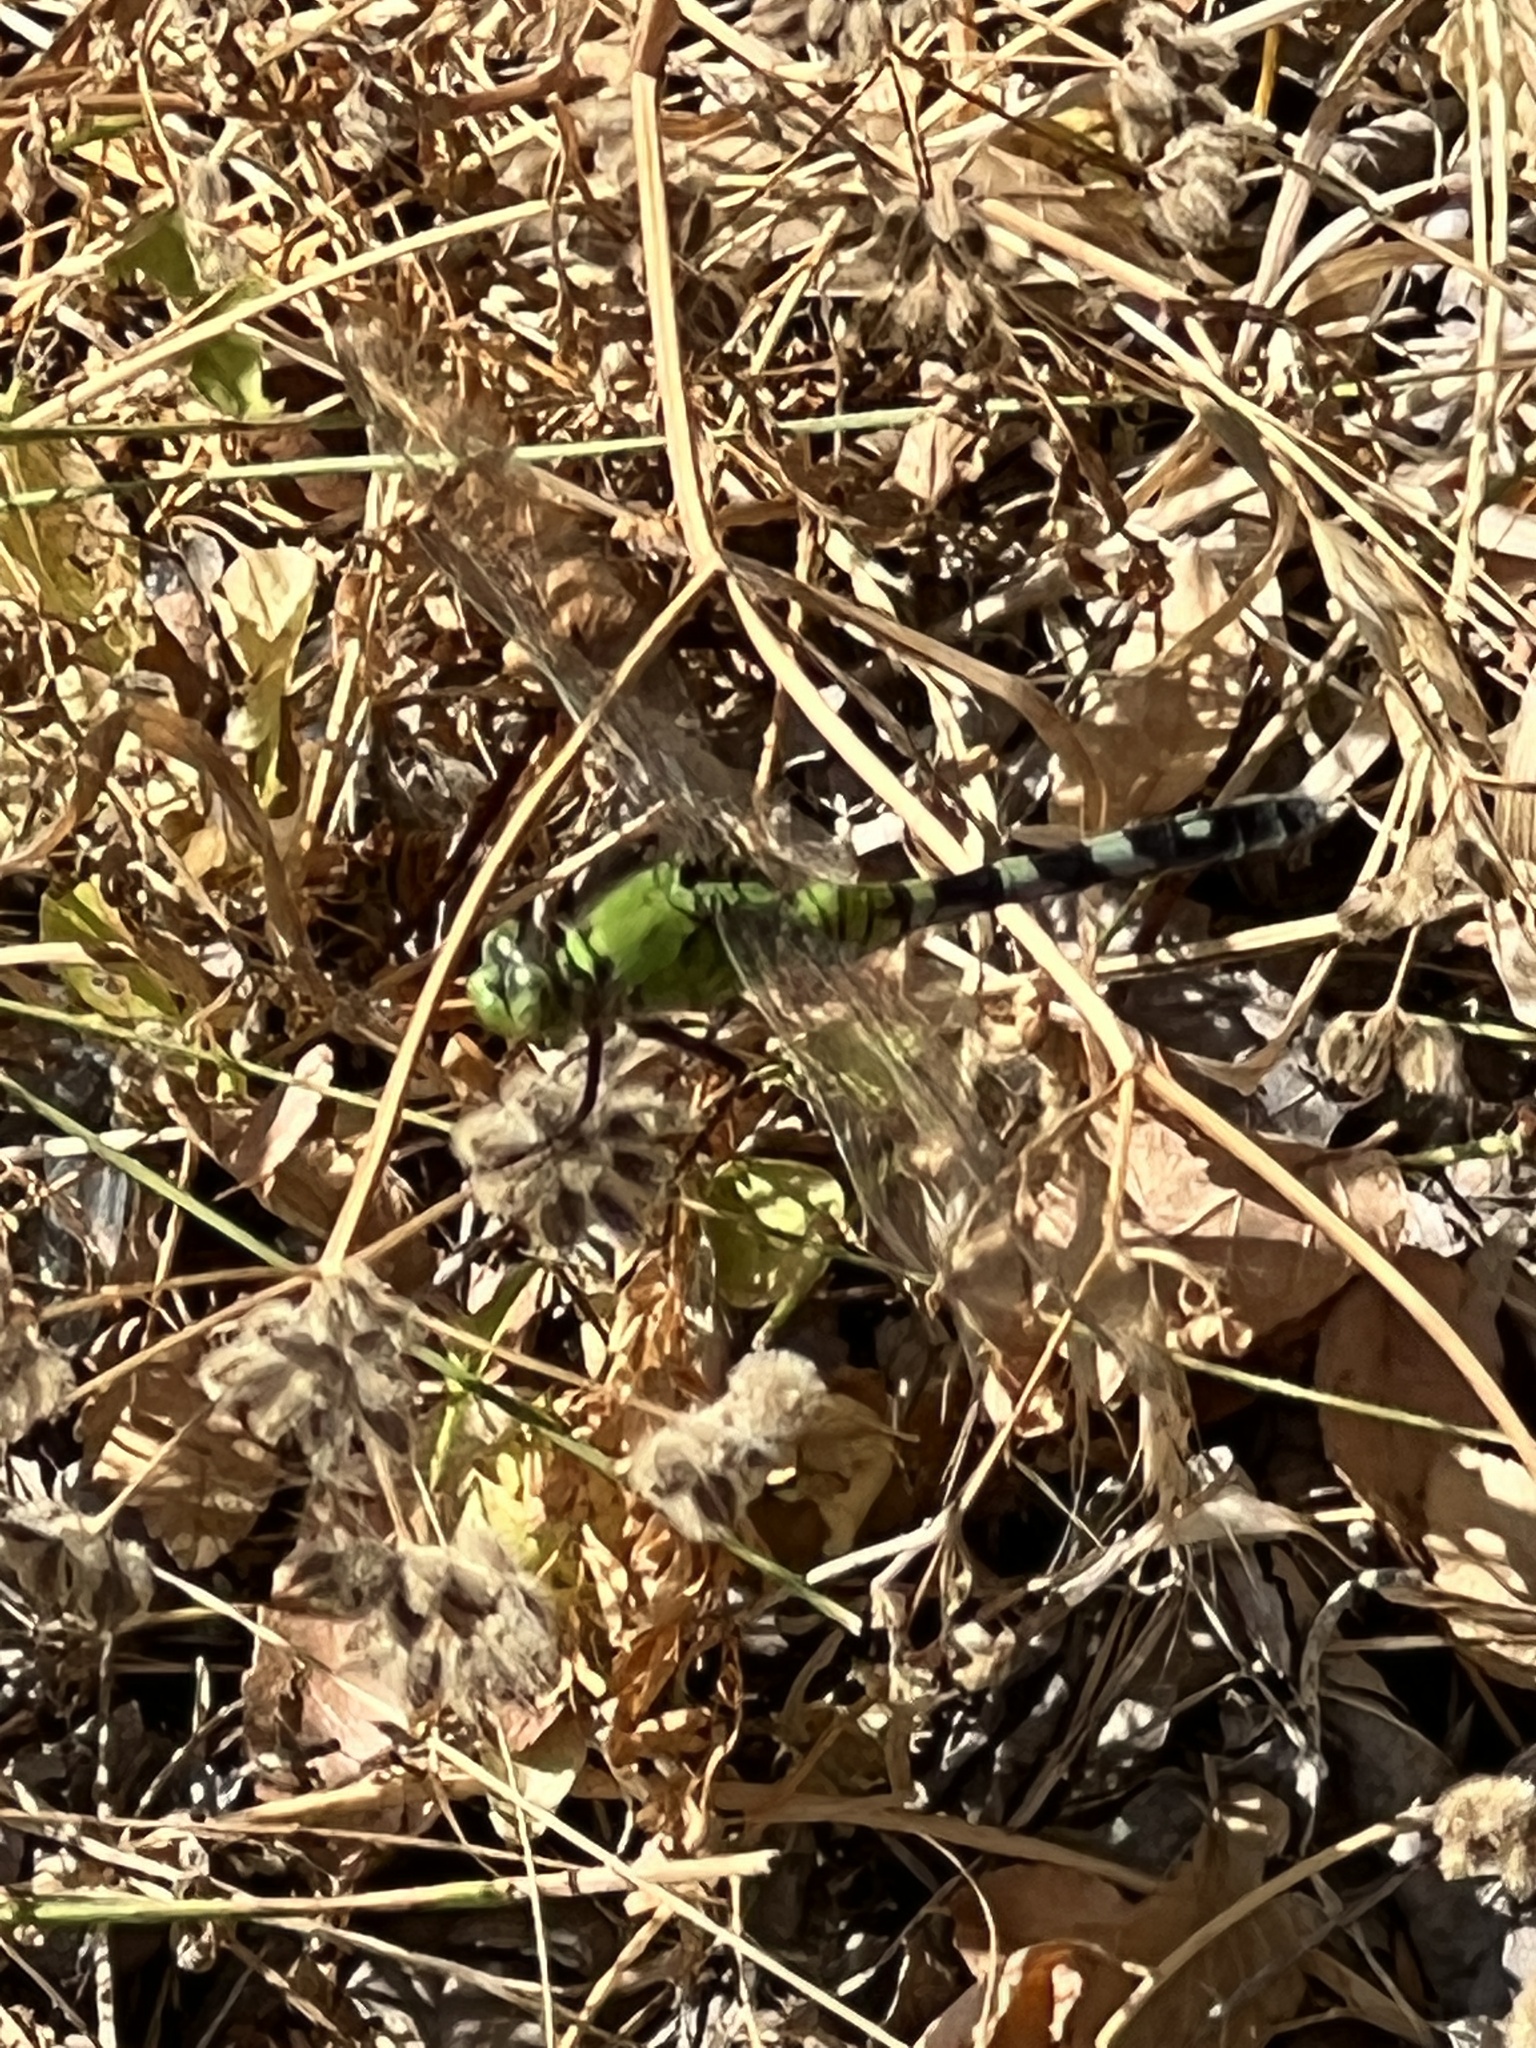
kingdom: Animalia
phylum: Arthropoda
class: Insecta
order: Odonata
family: Libellulidae
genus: Erythemis
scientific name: Erythemis simplicicollis
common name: Eastern pondhawk
